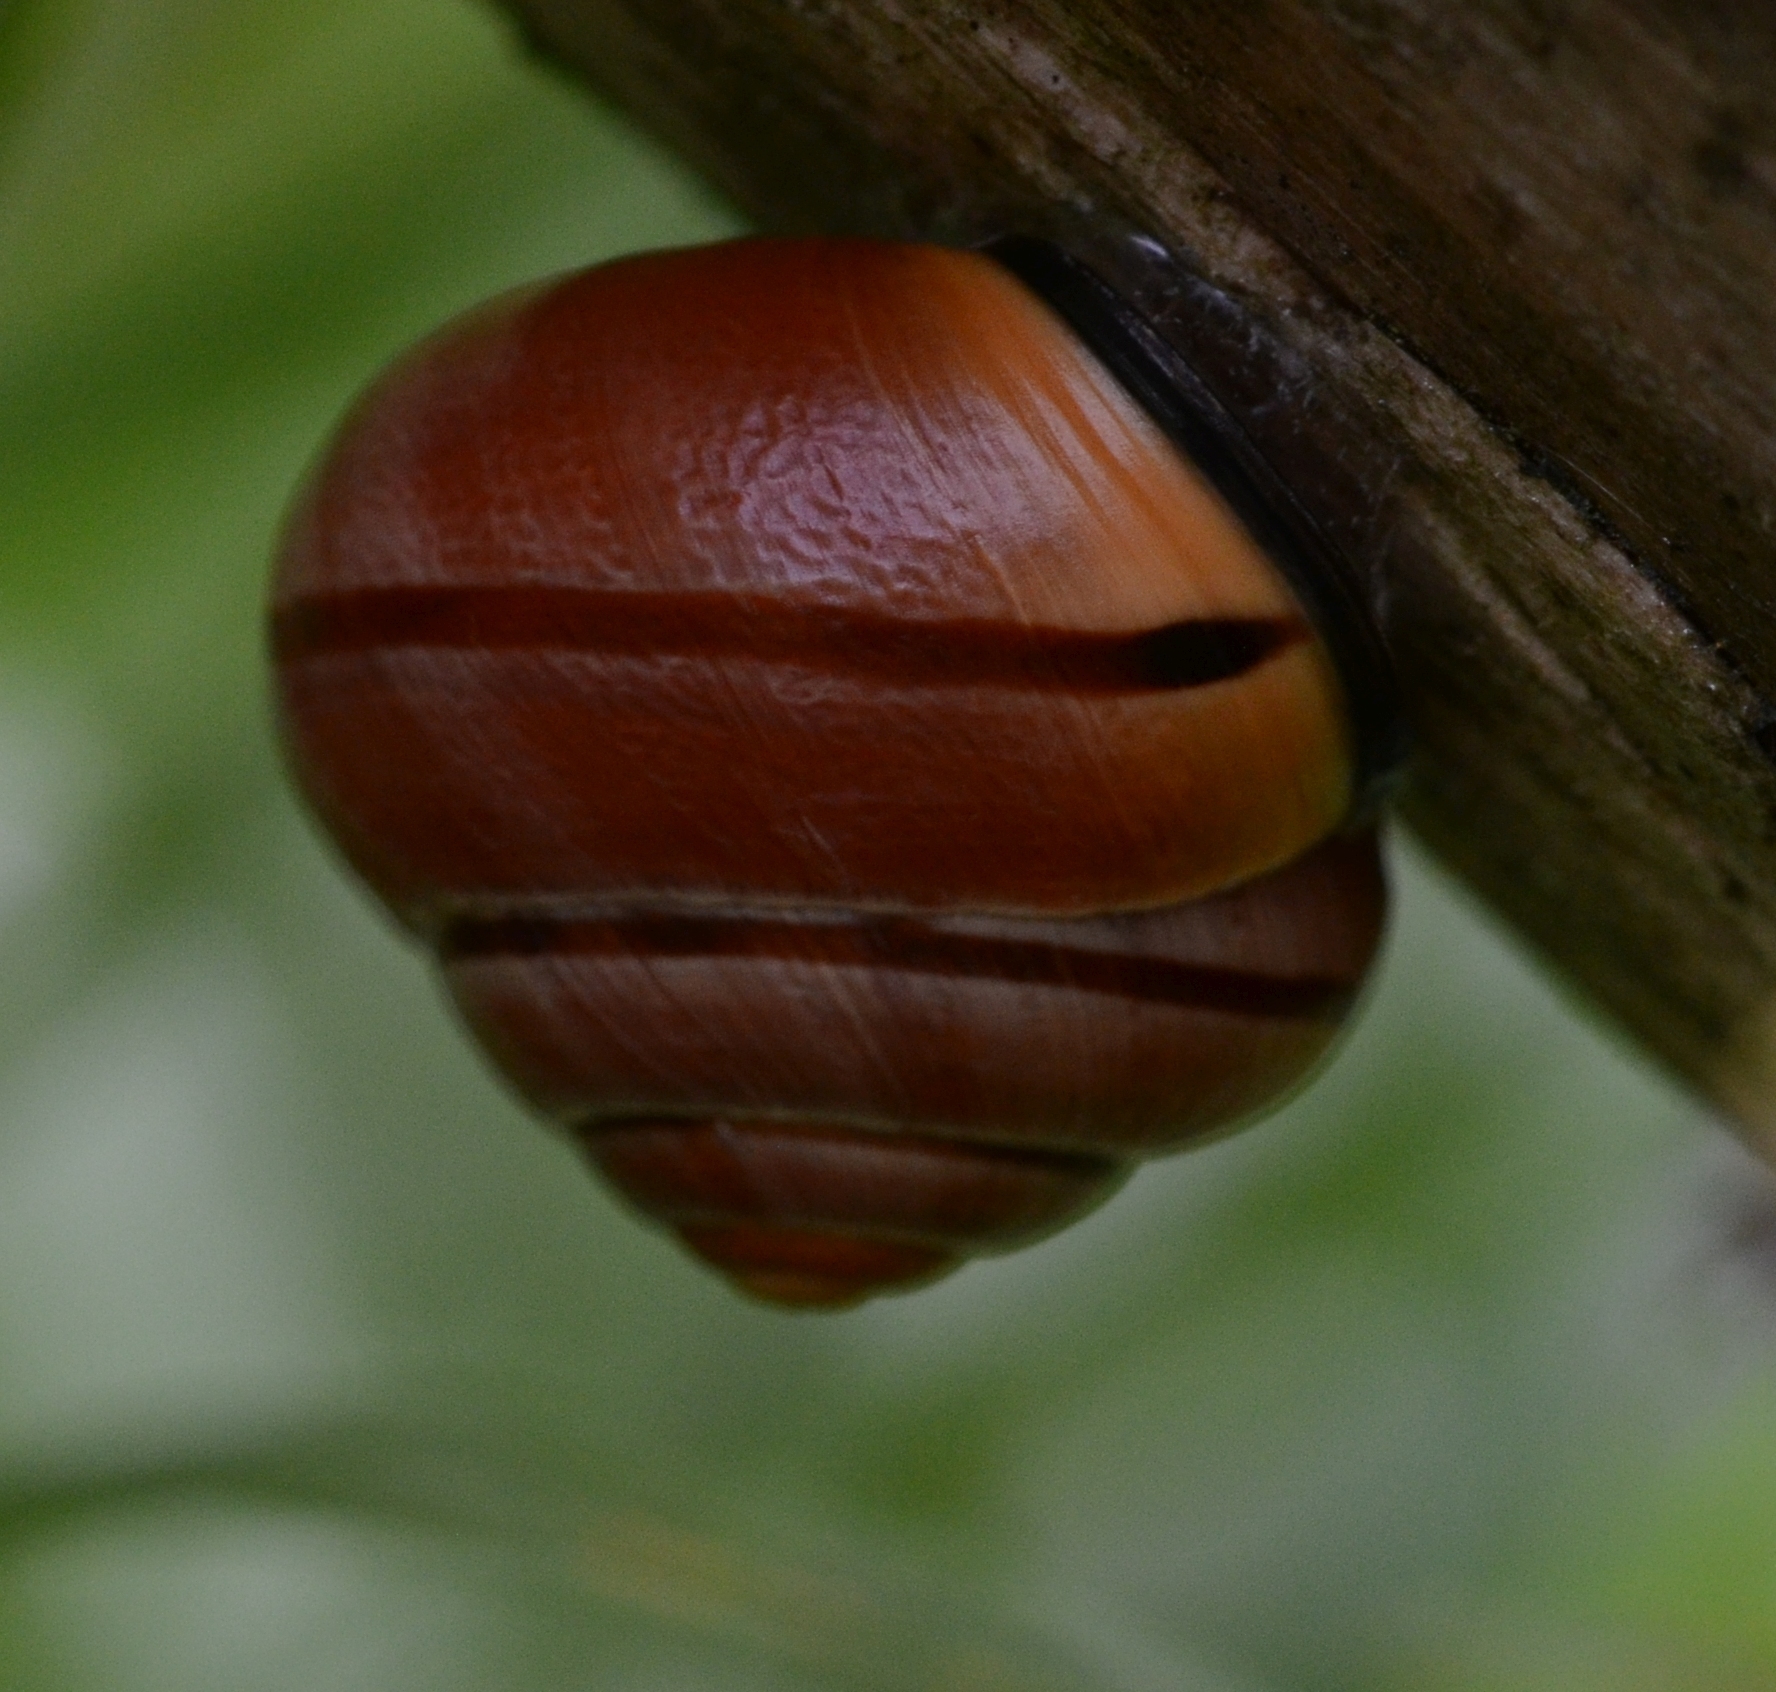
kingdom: Animalia
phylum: Mollusca
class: Gastropoda
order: Stylommatophora
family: Helicidae
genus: Cepaea
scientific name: Cepaea nemoralis
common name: Grovesnail
